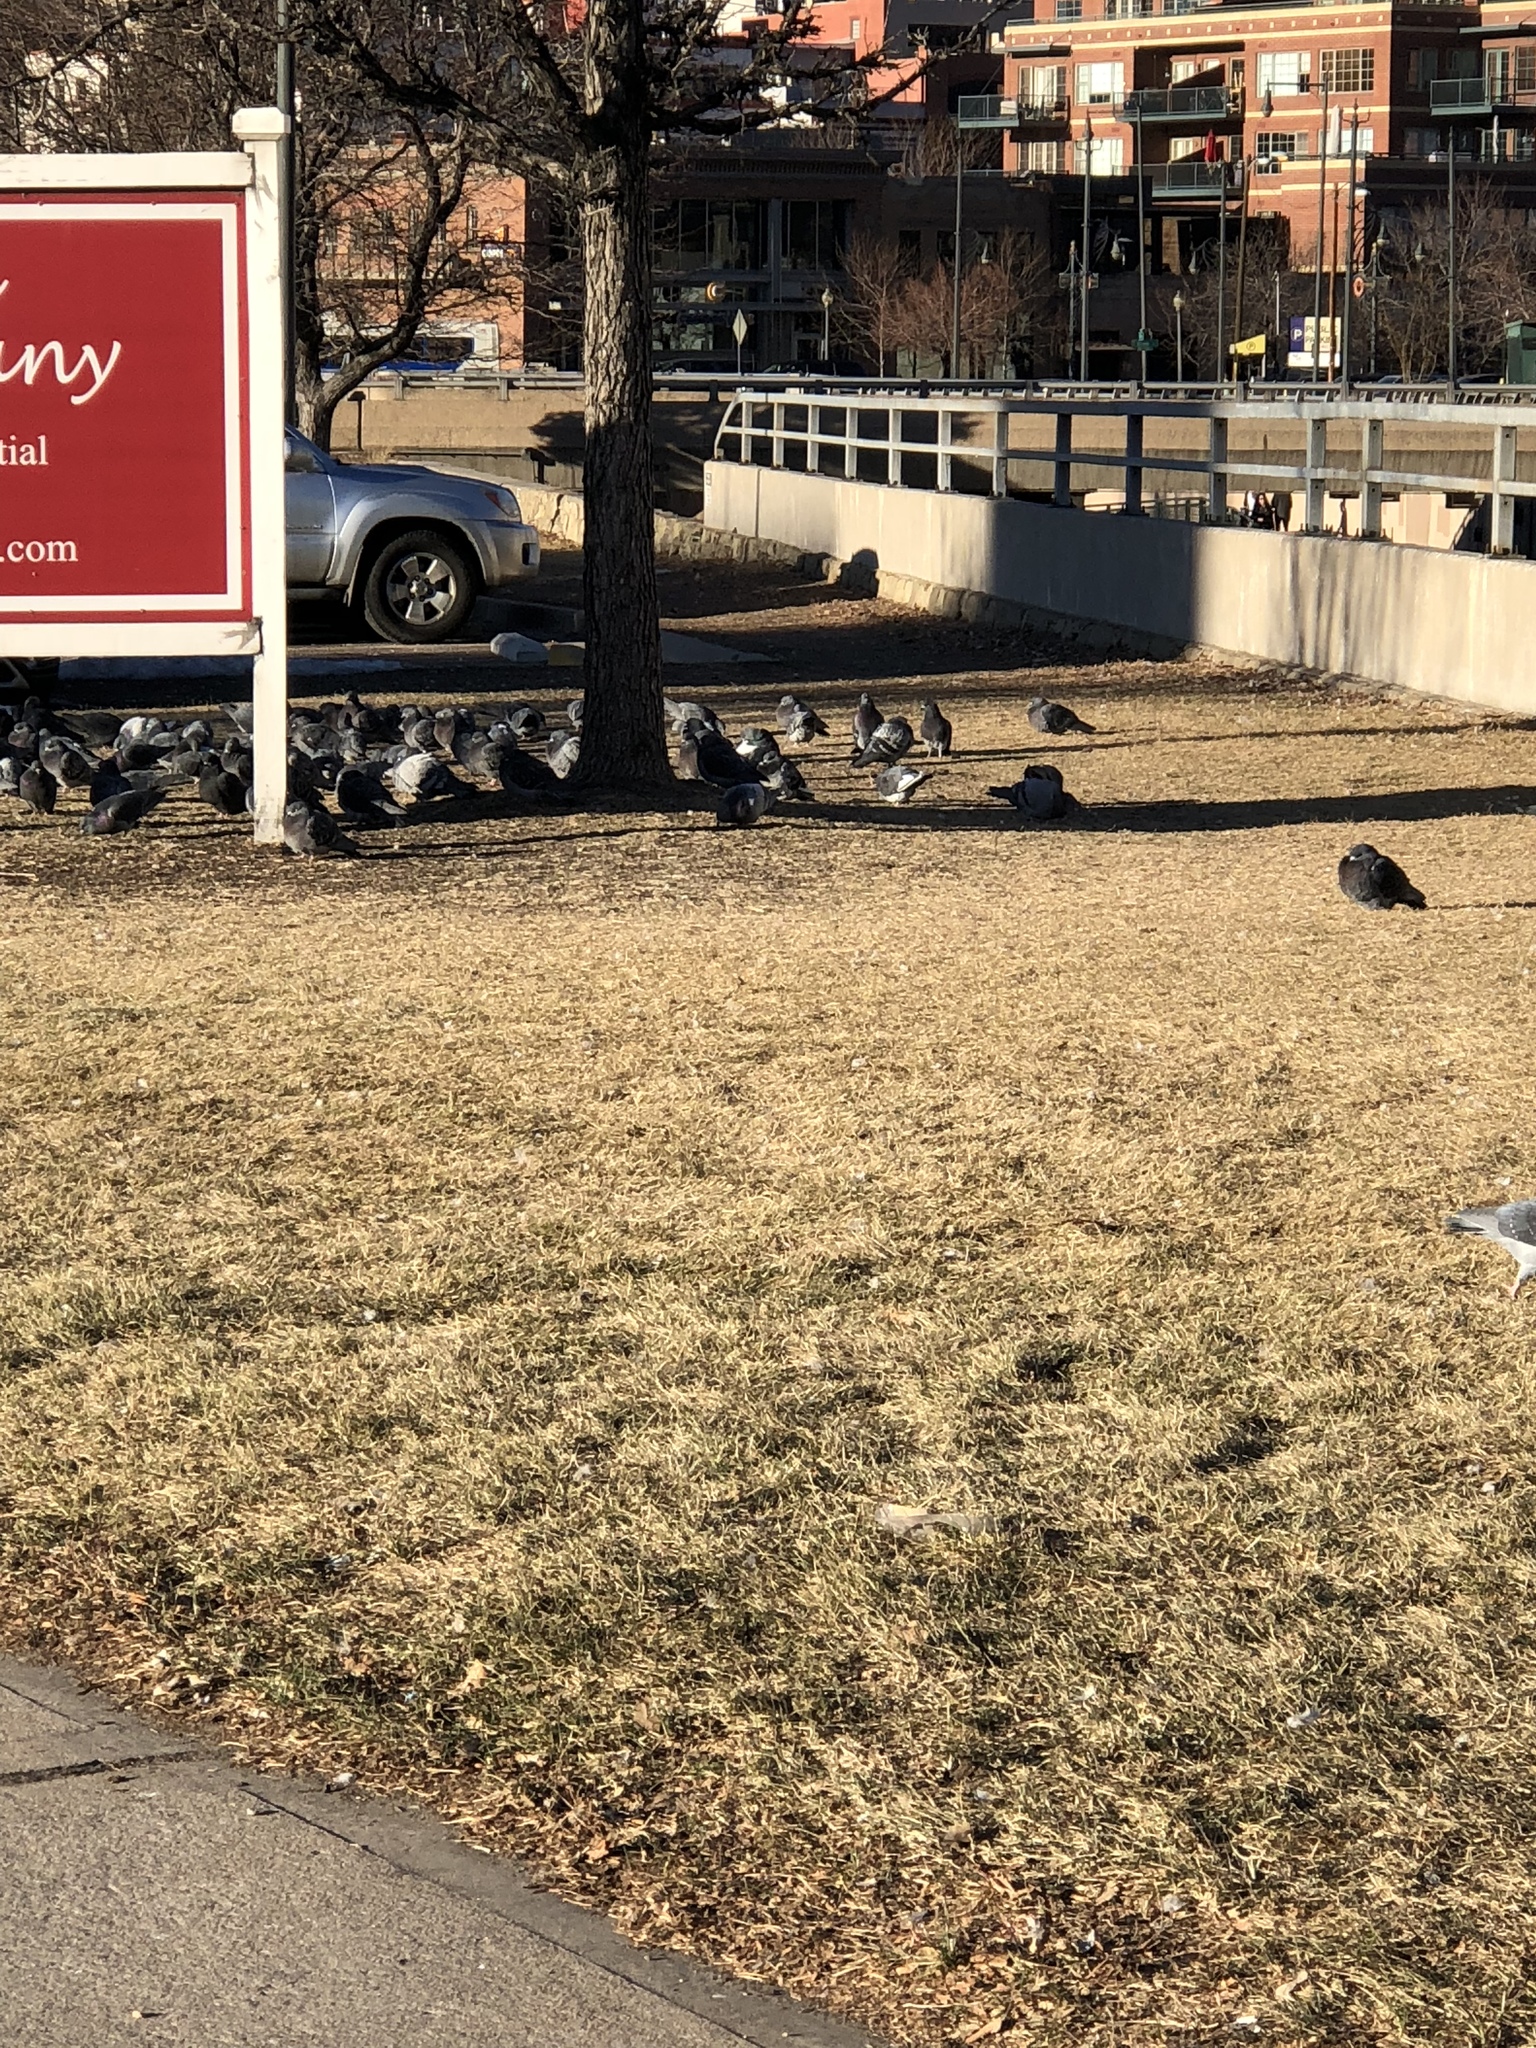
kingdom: Animalia
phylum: Chordata
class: Aves
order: Columbiformes
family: Columbidae
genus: Columba
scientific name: Columba livia
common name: Rock pigeon
